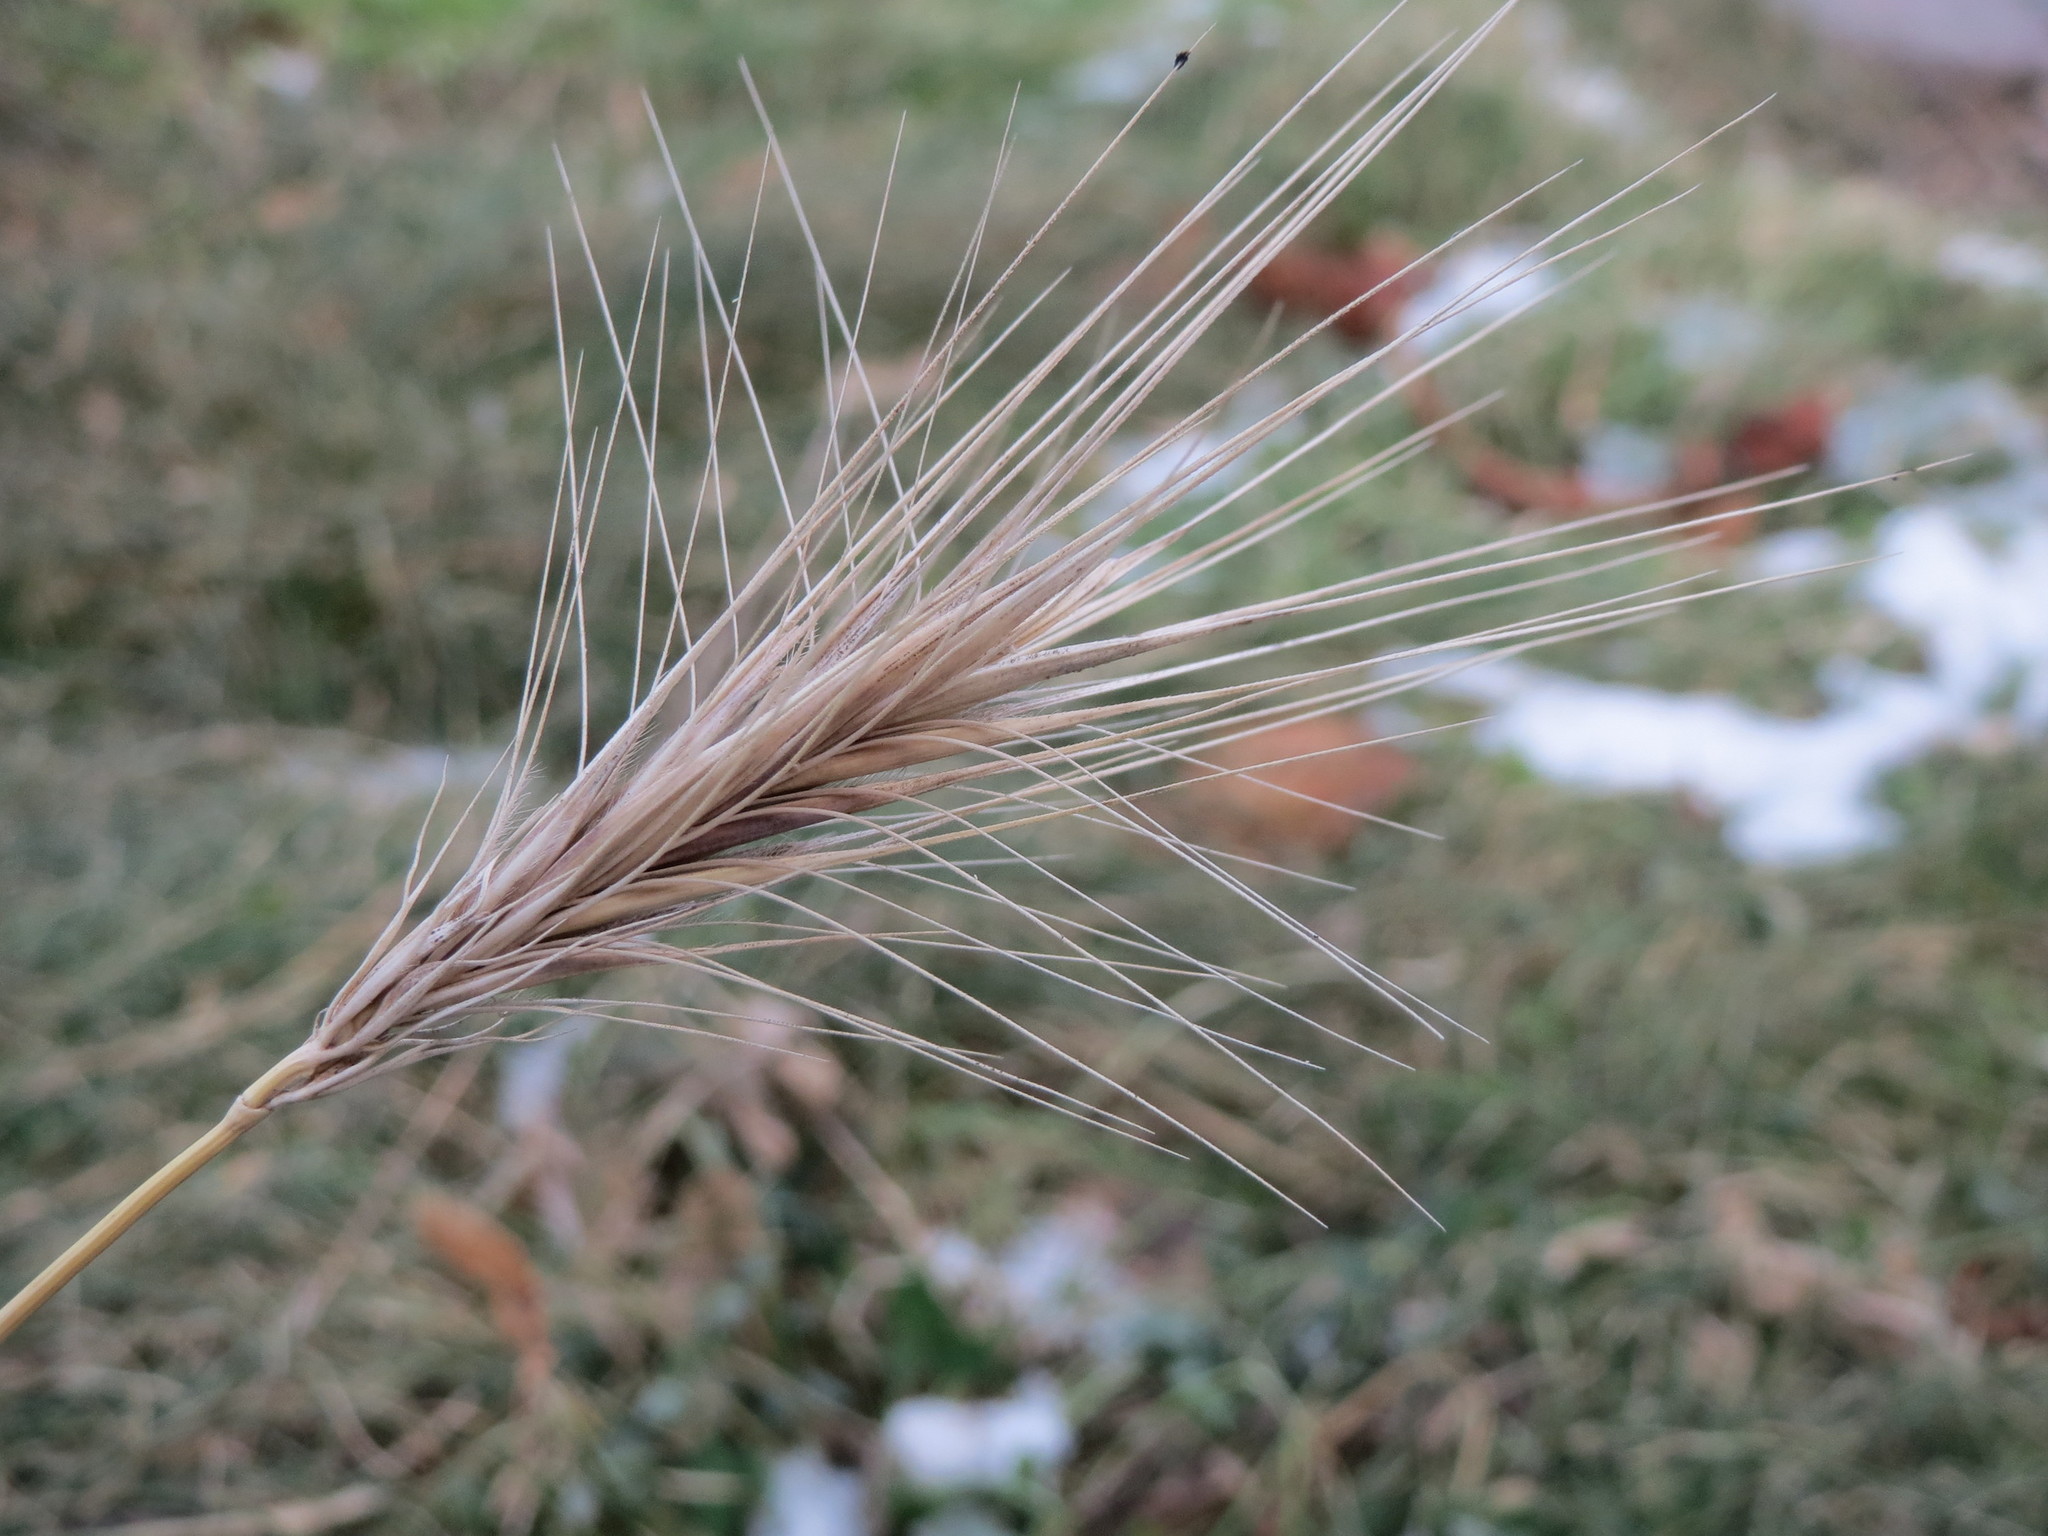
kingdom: Plantae
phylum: Tracheophyta
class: Liliopsida
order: Poales
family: Poaceae
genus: Hordeum
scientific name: Hordeum murinum
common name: Wall barley
